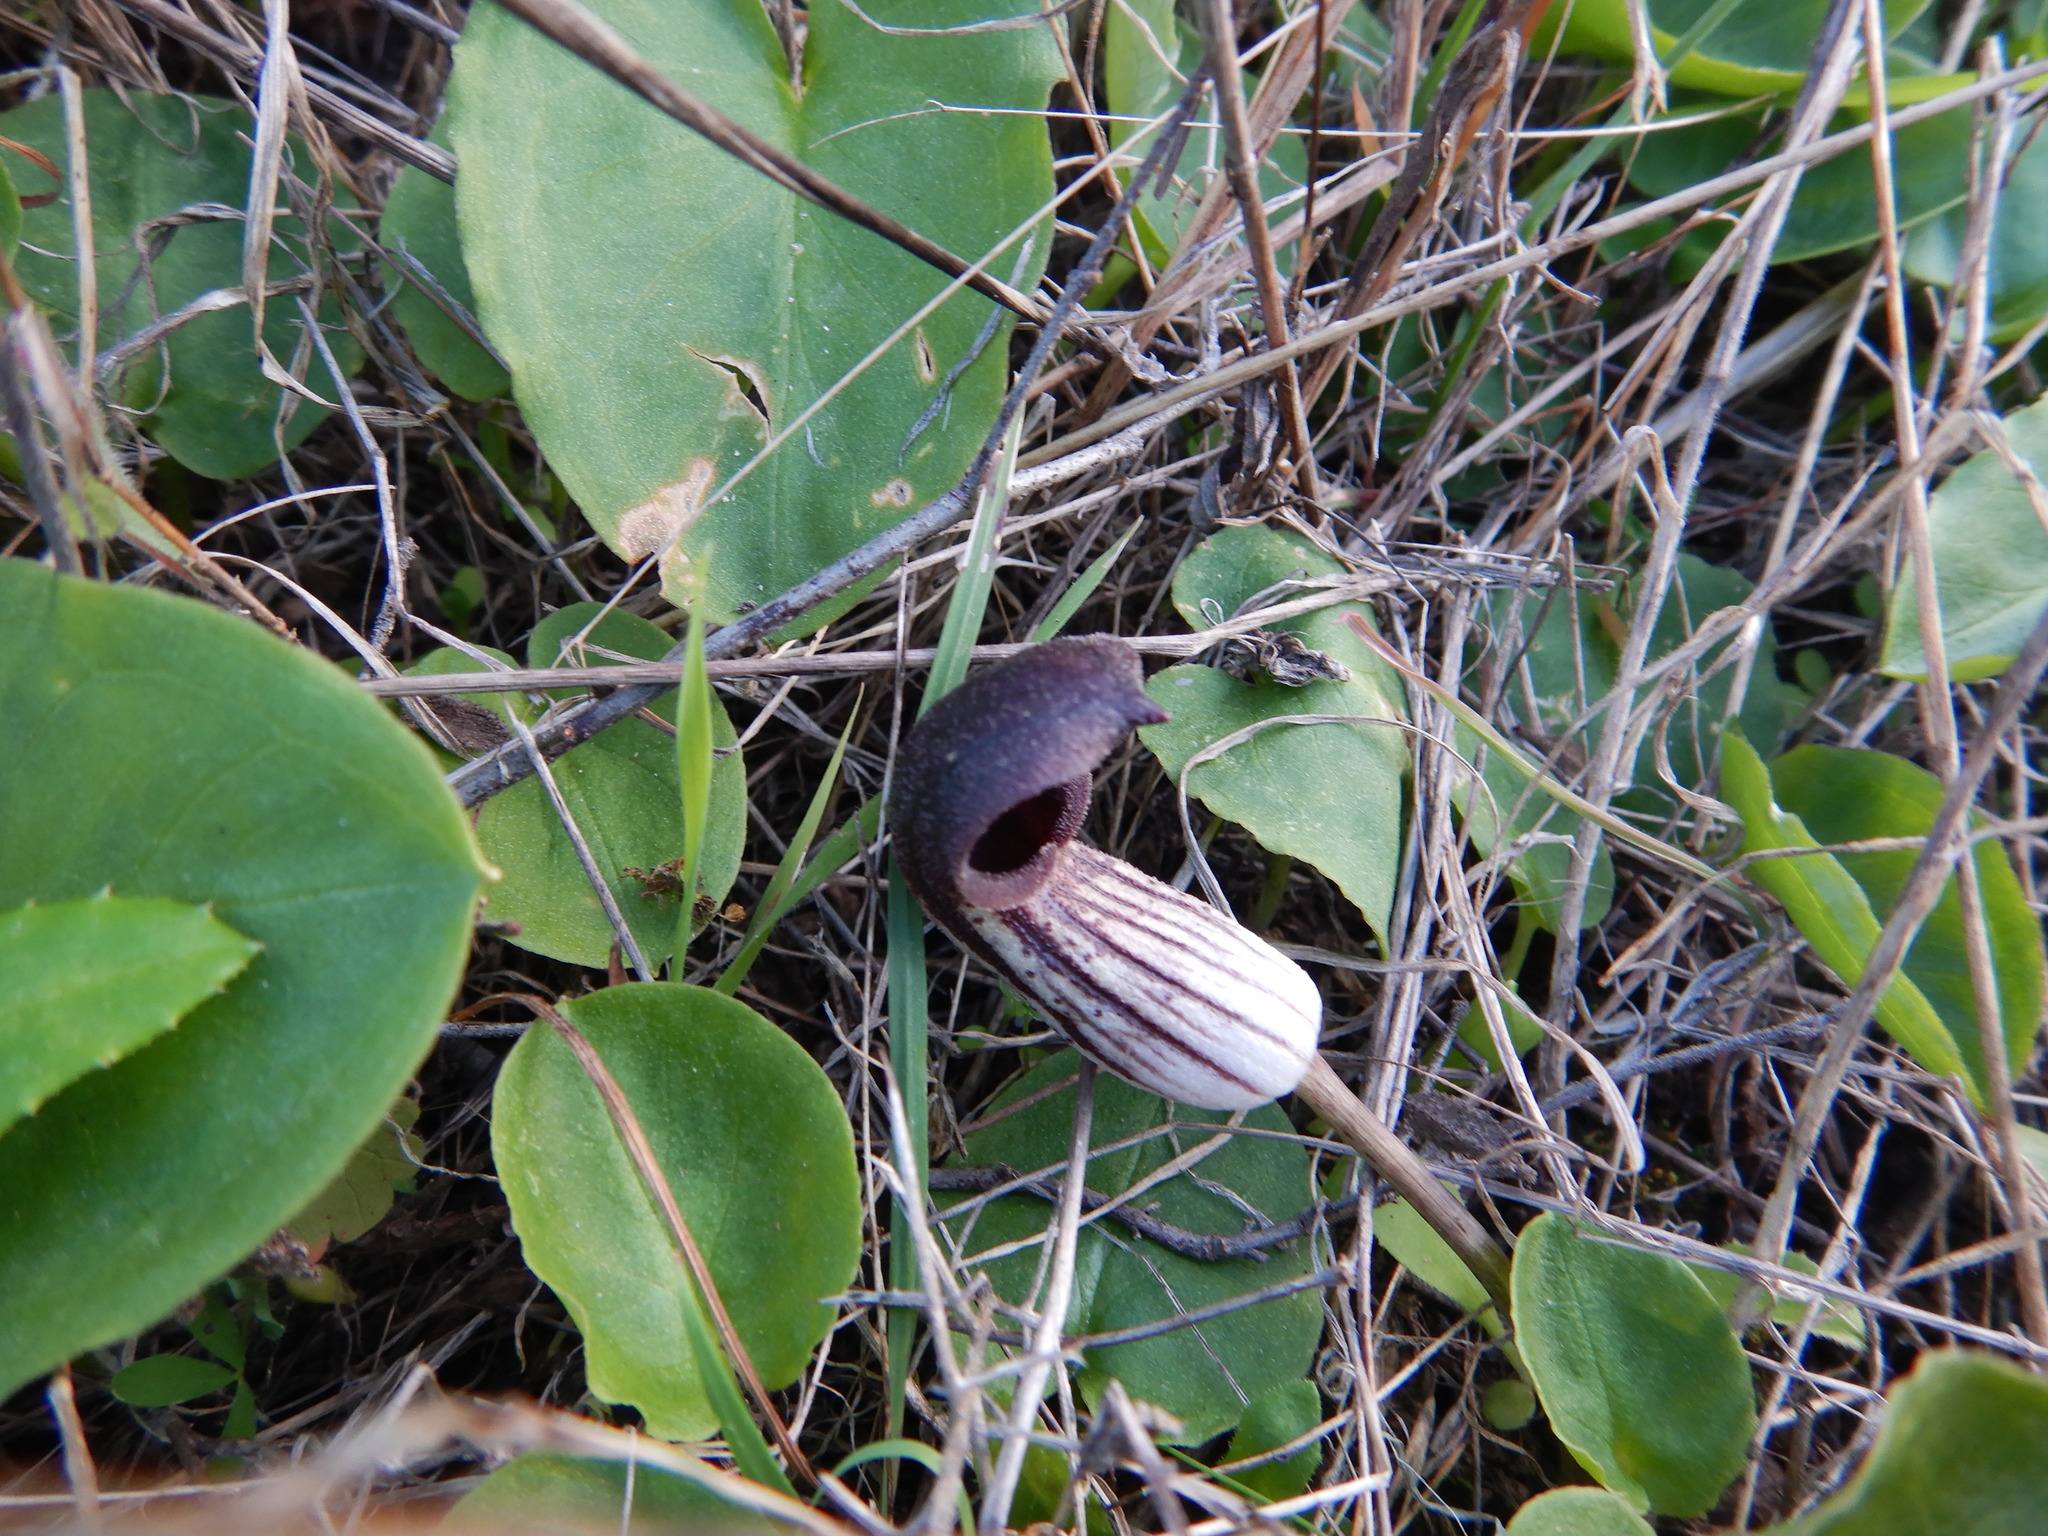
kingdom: Plantae
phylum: Tracheophyta
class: Liliopsida
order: Alismatales
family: Araceae
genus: Arisarum
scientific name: Arisarum simorrhinum
